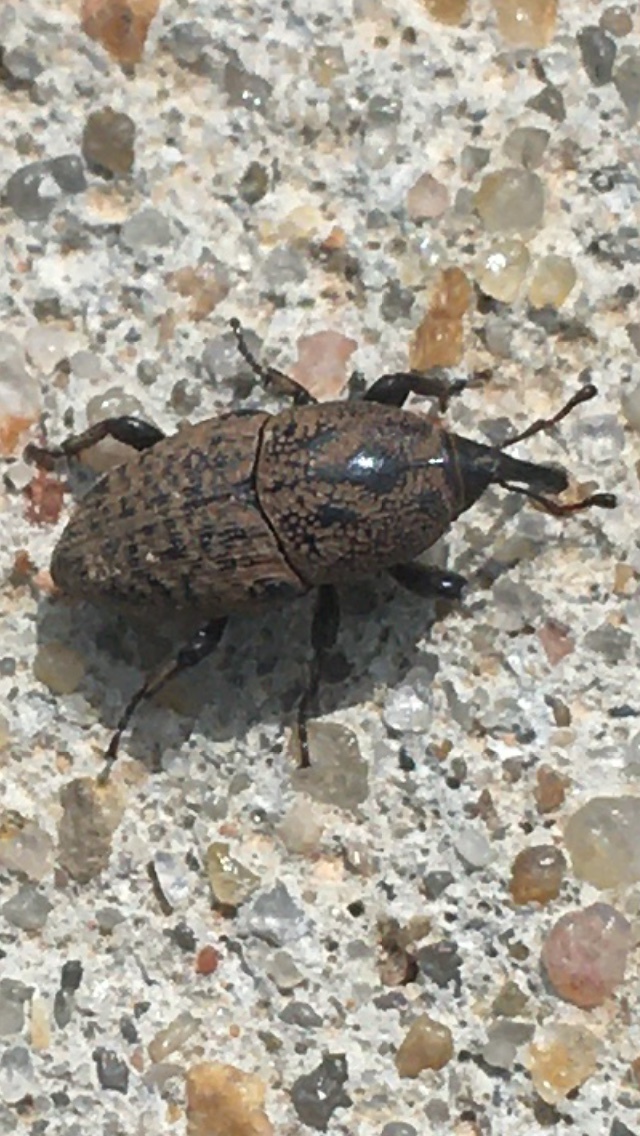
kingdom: Animalia
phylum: Arthropoda
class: Insecta
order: Coleoptera
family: Dryophthoridae
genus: Sphenophorus
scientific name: Sphenophorus inaequalis
